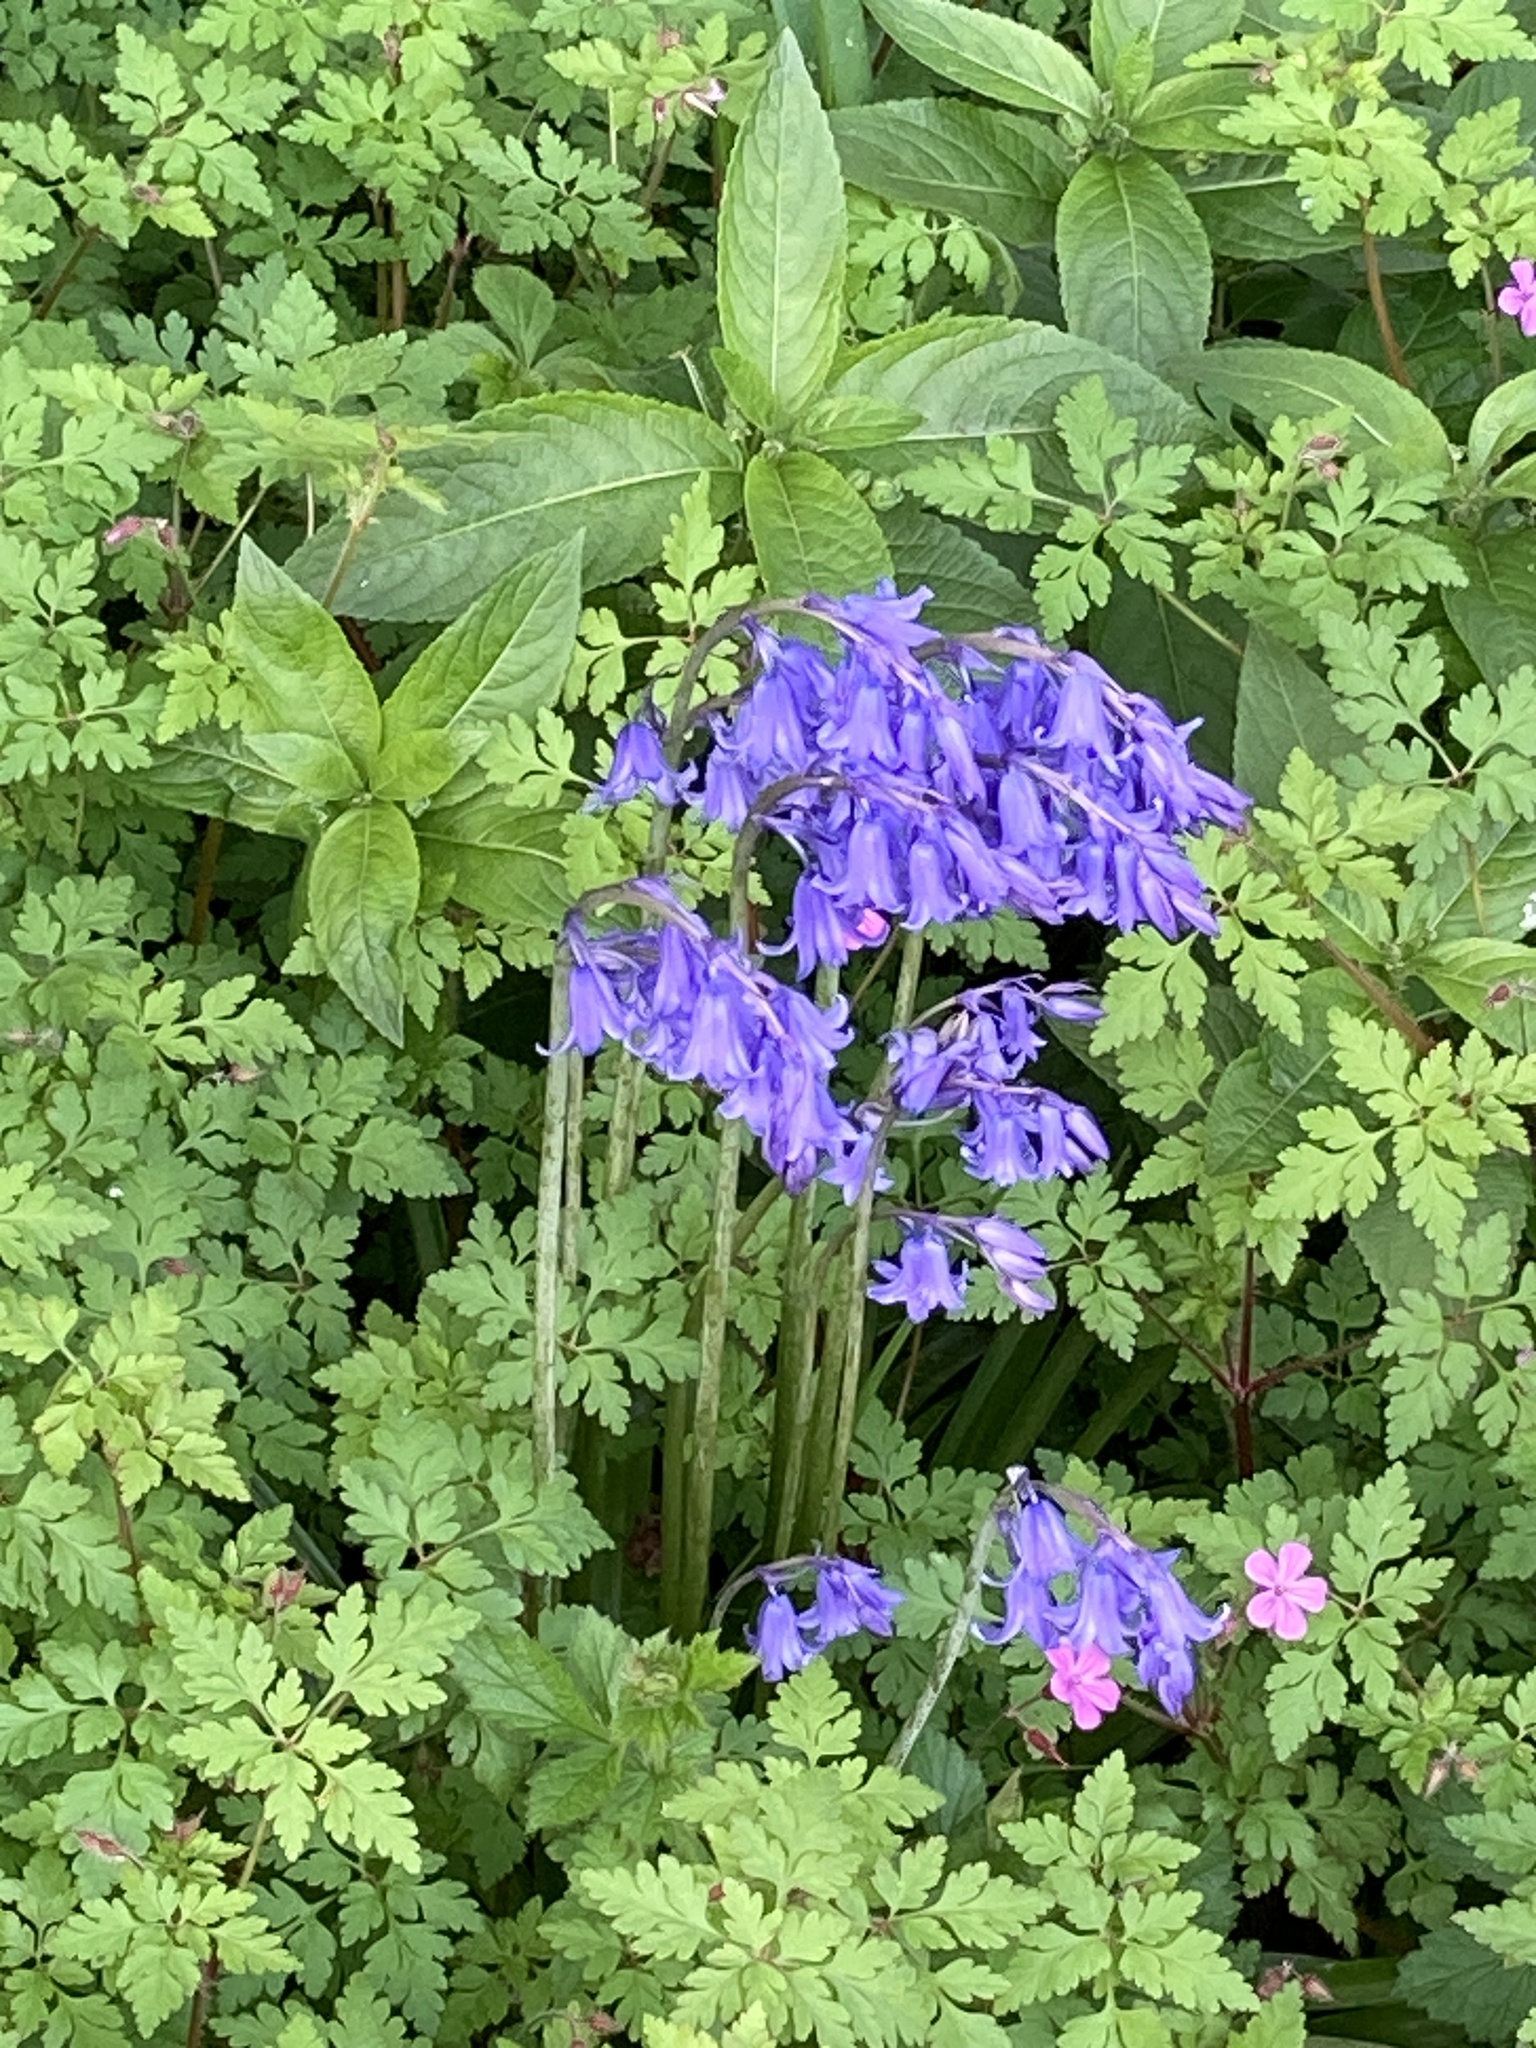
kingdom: Plantae
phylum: Tracheophyta
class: Liliopsida
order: Asparagales
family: Asparagaceae
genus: Hyacinthoides
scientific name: Hyacinthoides non-scripta
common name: Bluebell
